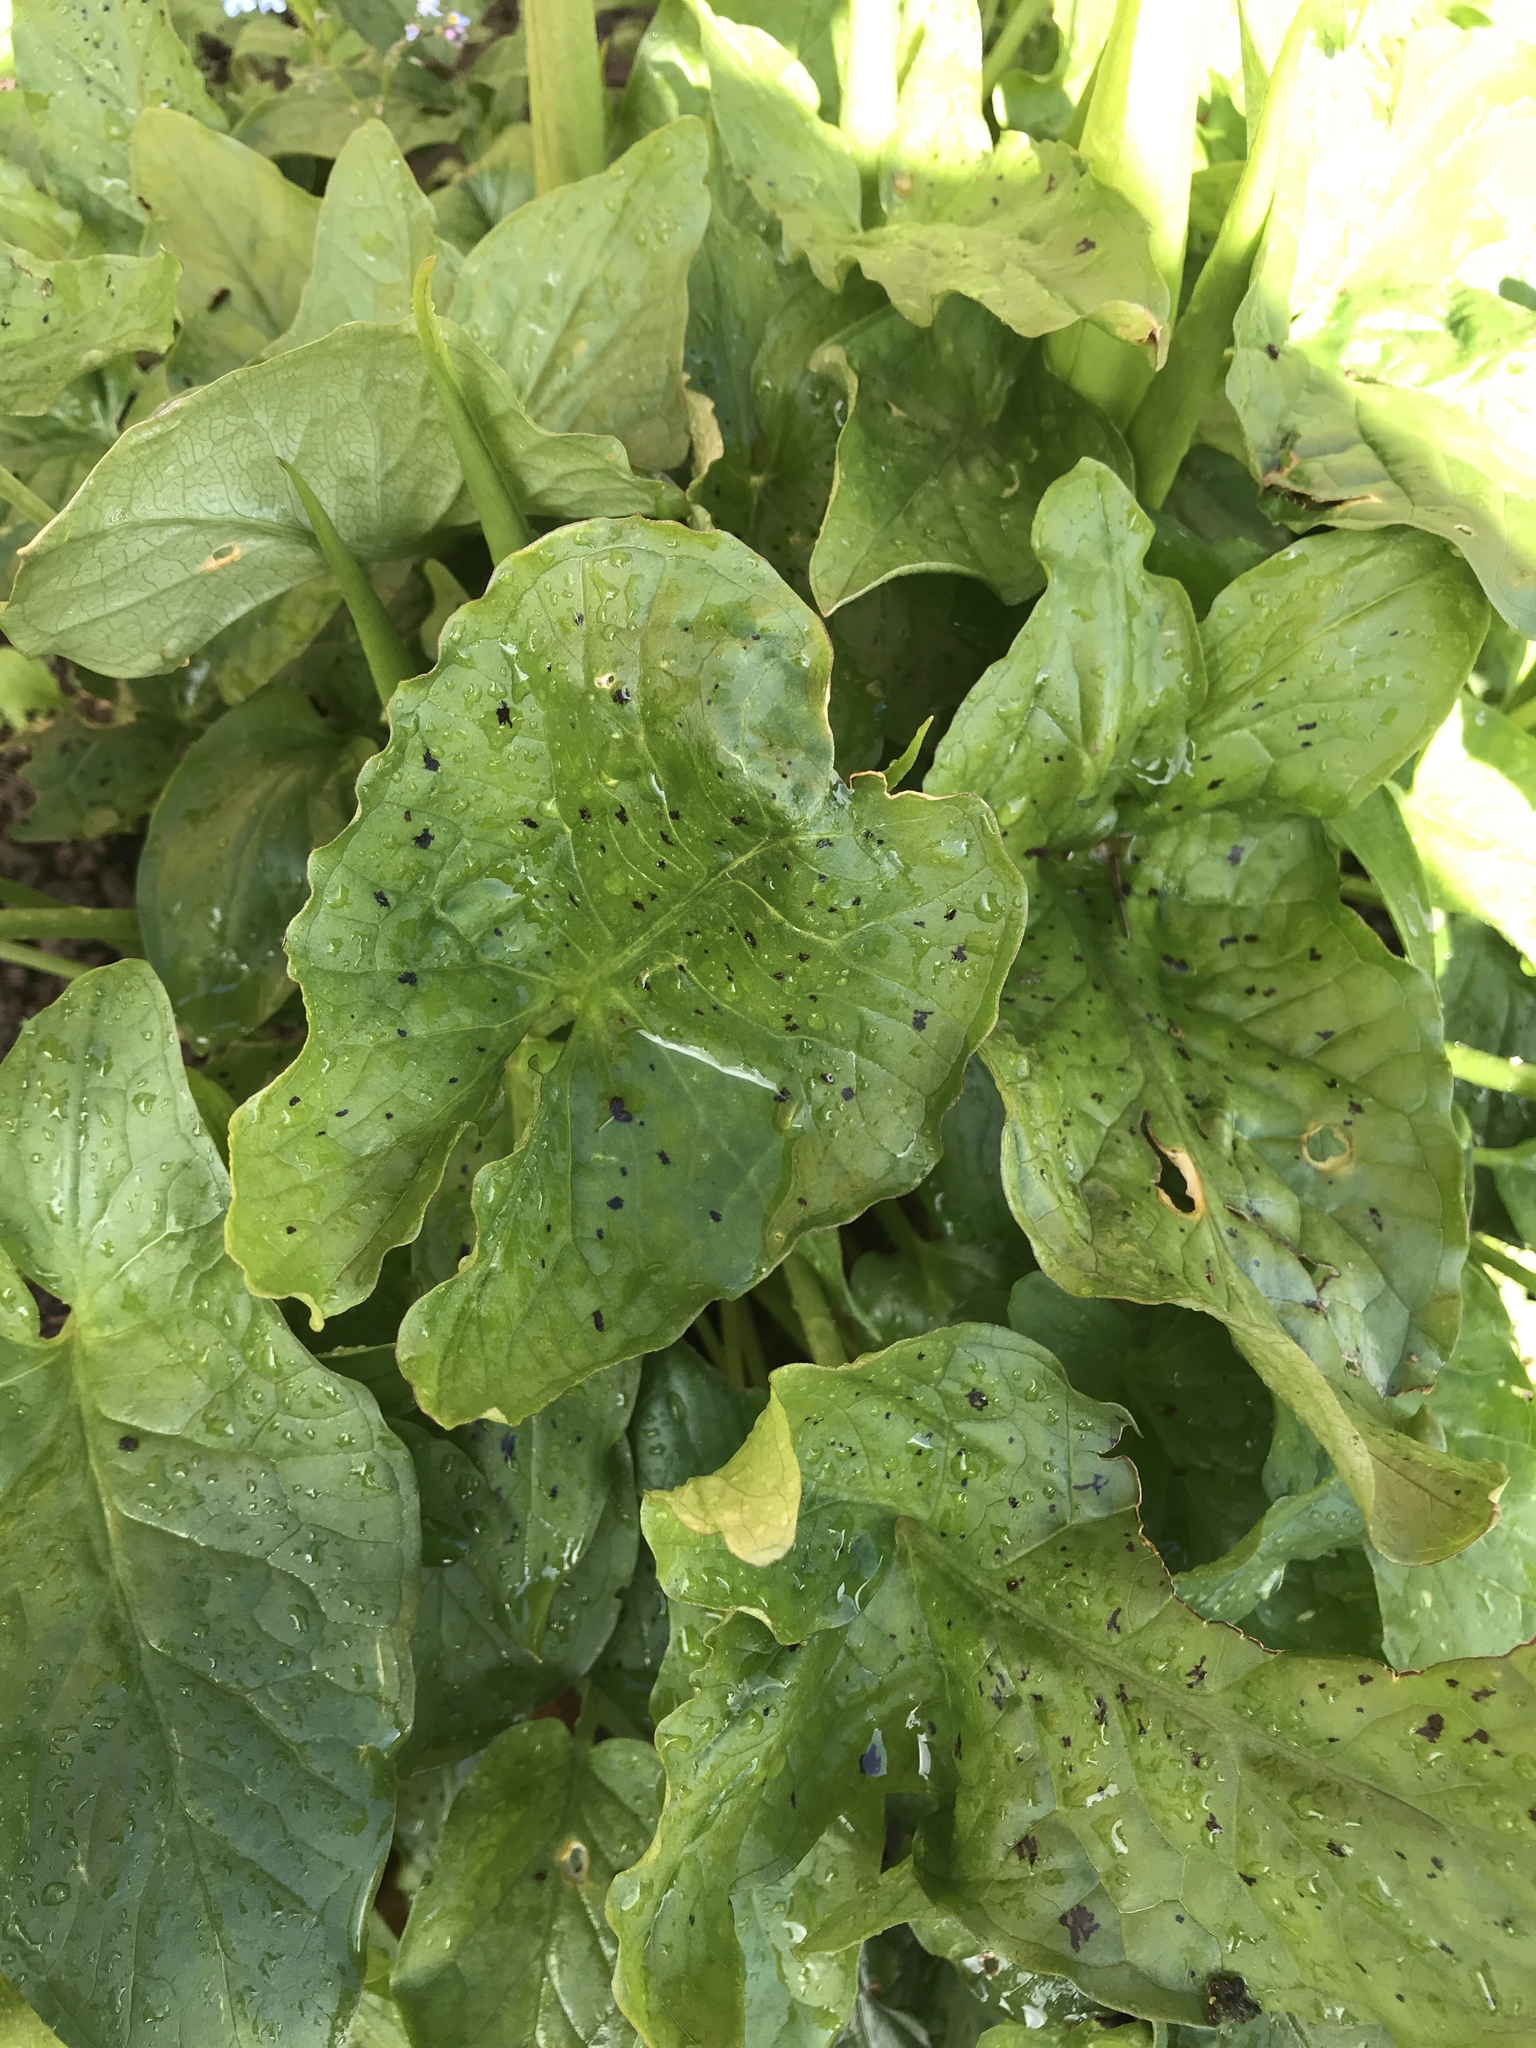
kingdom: Plantae
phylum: Tracheophyta
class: Liliopsida
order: Alismatales
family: Araceae
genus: Arum
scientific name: Arum maculatum
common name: Lords-and-ladies
